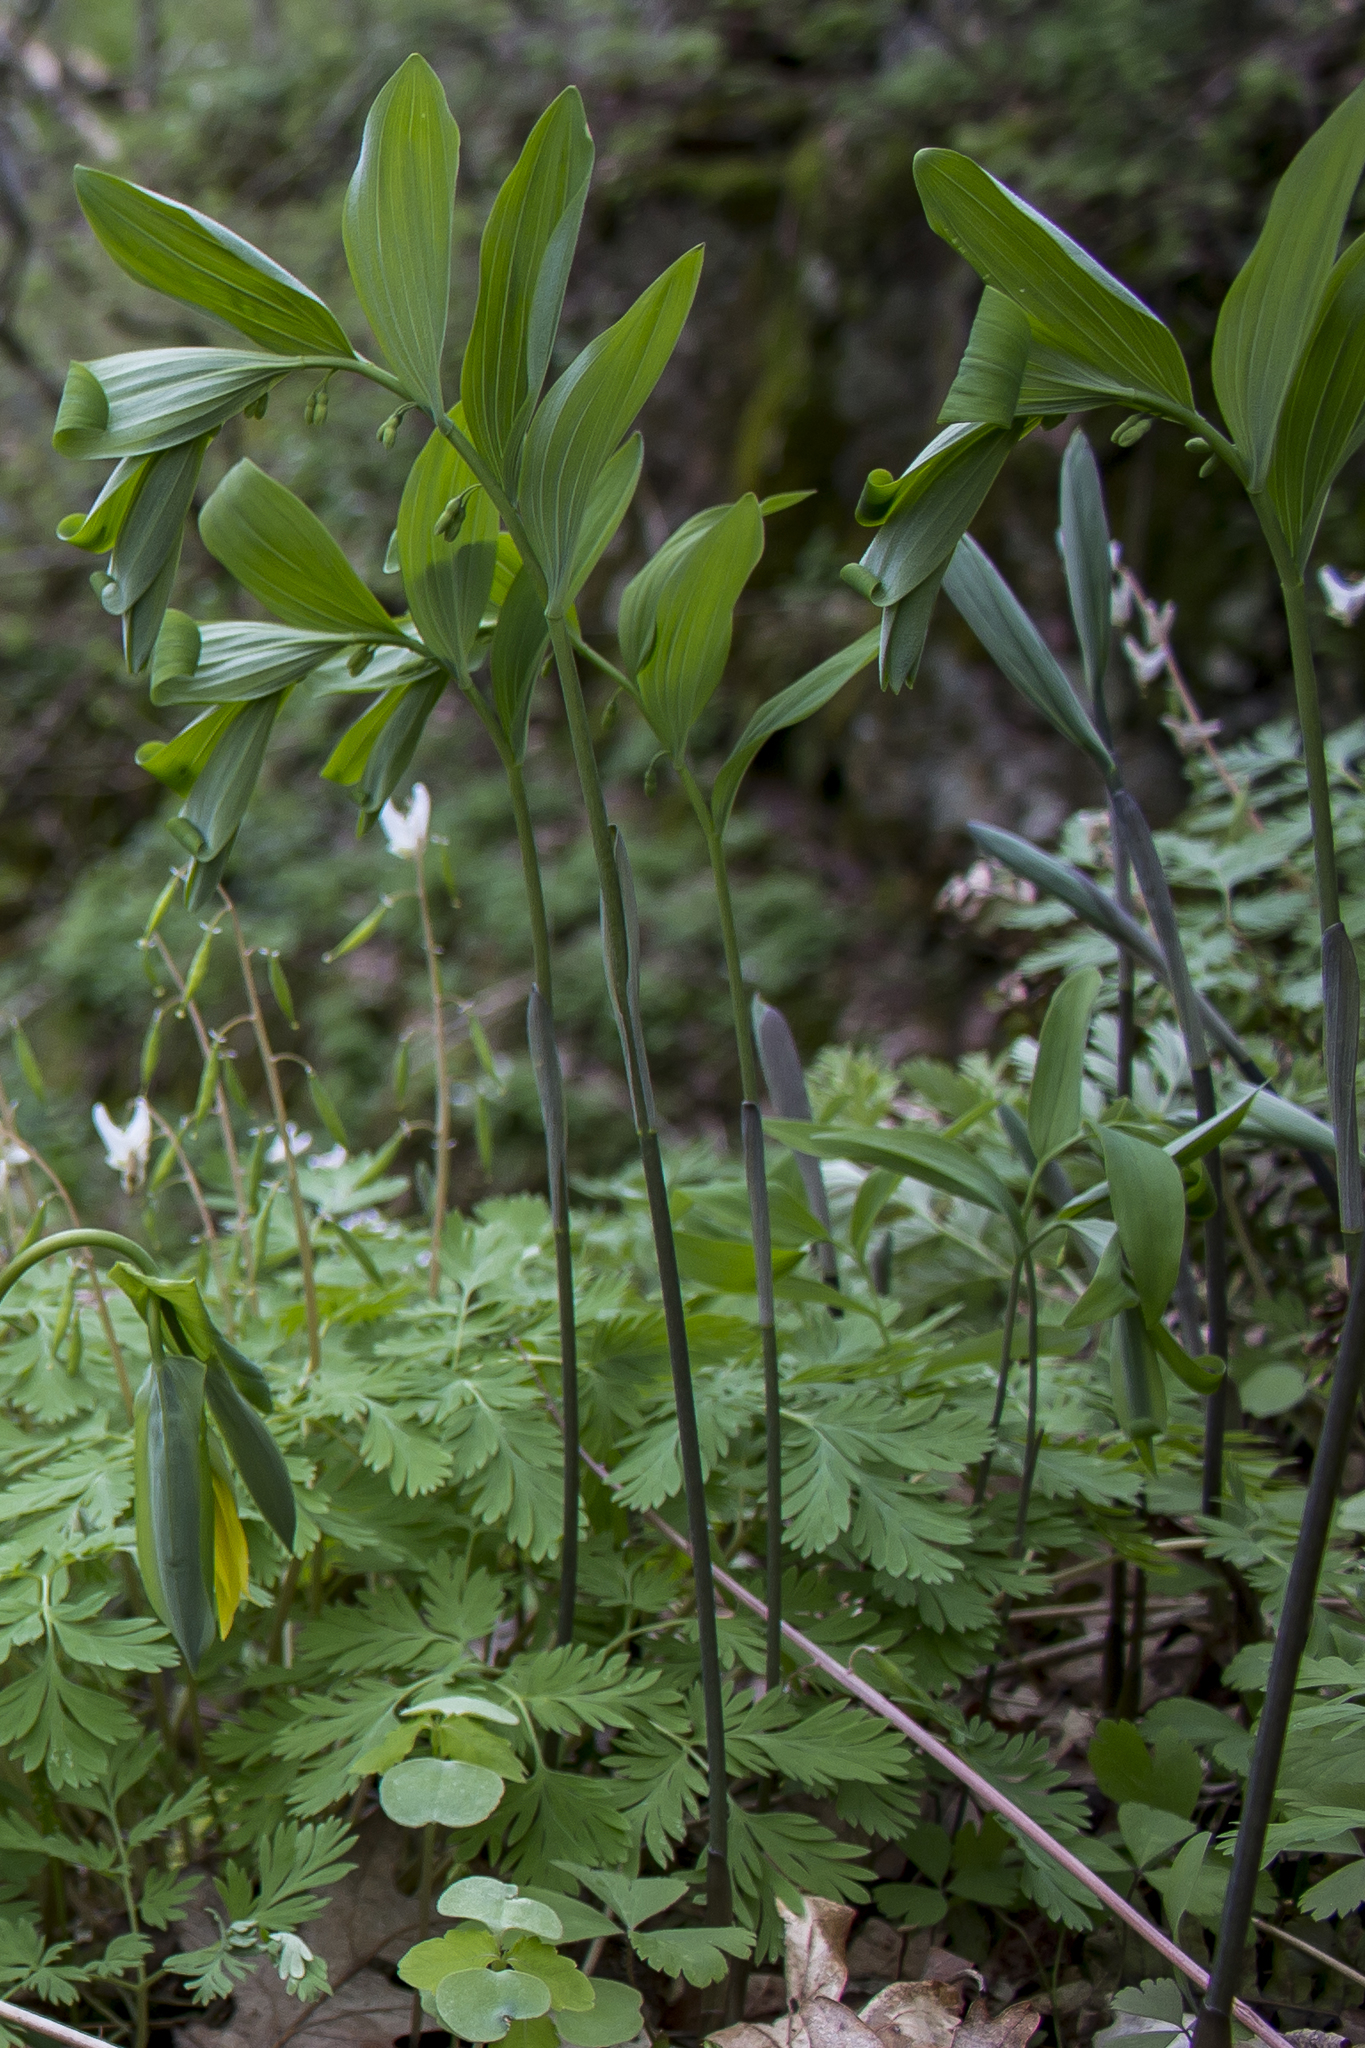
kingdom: Plantae
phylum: Tracheophyta
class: Liliopsida
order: Asparagales
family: Asparagaceae
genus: Polygonatum
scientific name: Polygonatum pubescens
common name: Downy solomon's seal
